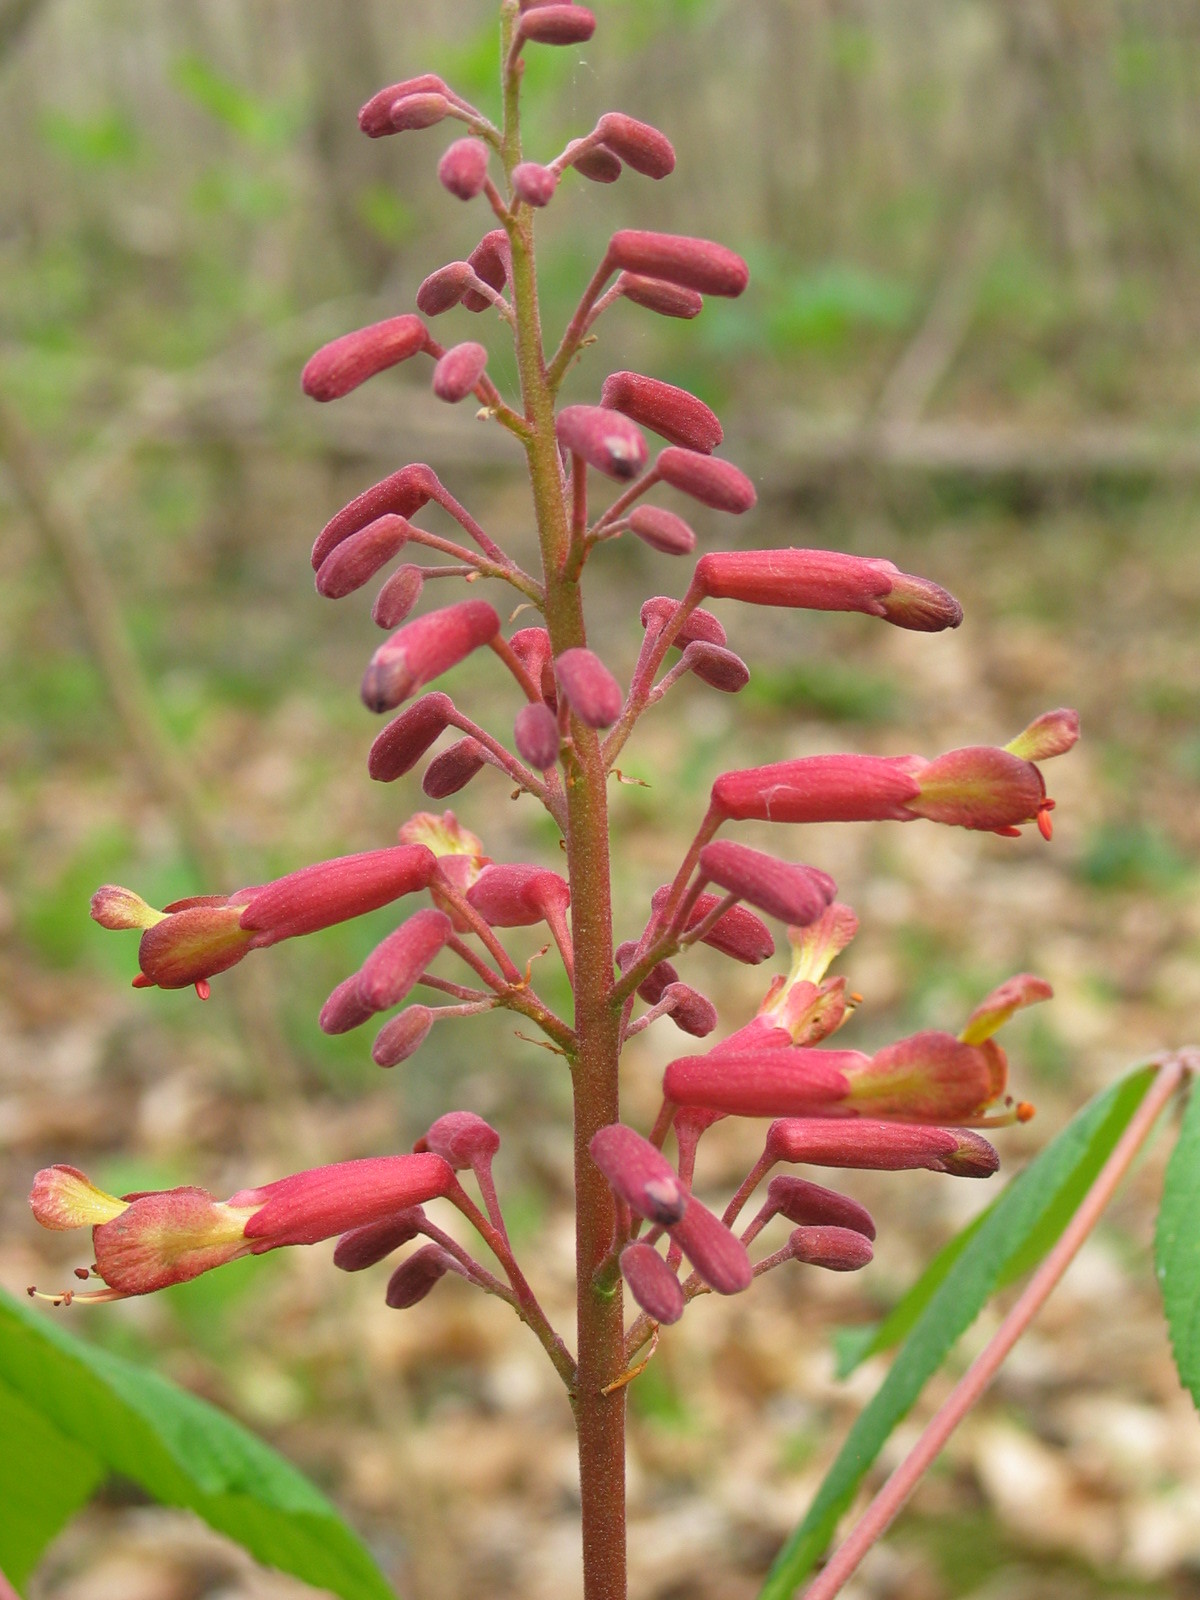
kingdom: Plantae
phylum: Tracheophyta
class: Magnoliopsida
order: Sapindales
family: Sapindaceae
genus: Aesculus
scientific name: Aesculus pavia
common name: Red buckeye
